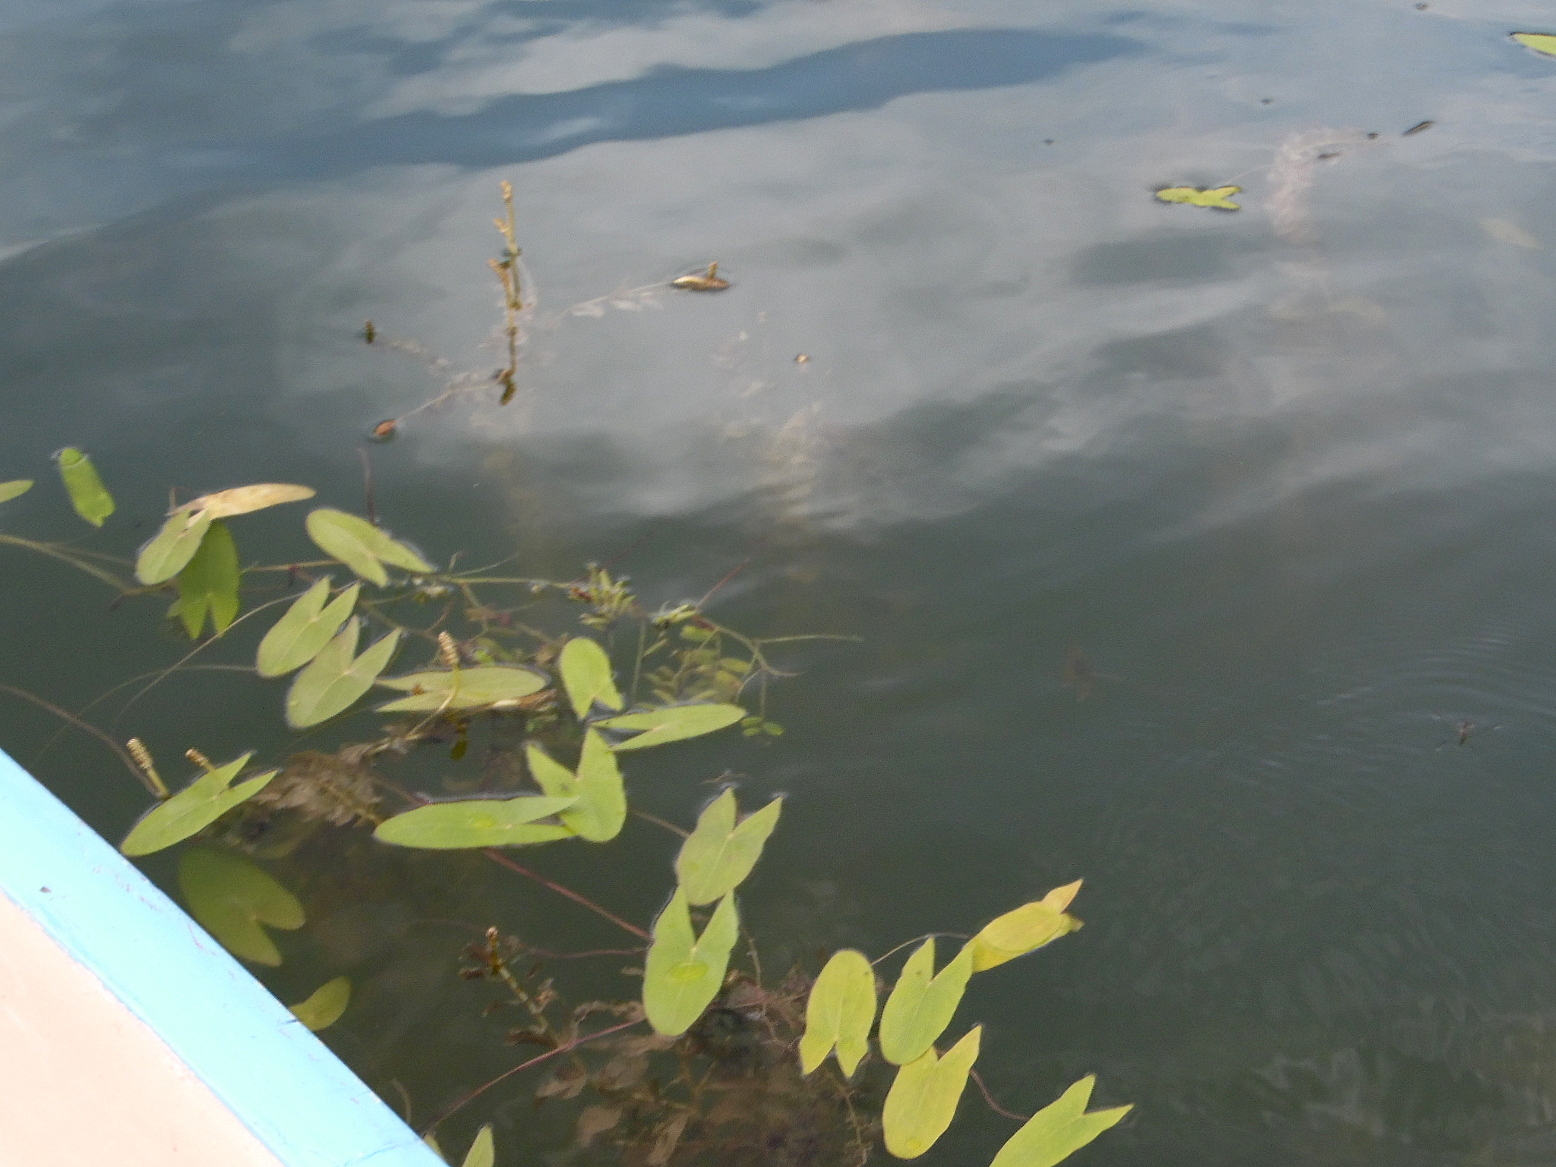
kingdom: Plantae
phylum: Tracheophyta
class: Liliopsida
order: Alismatales
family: Alismataceae
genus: Sagittaria
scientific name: Sagittaria sagittifolia
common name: Arrowhead
